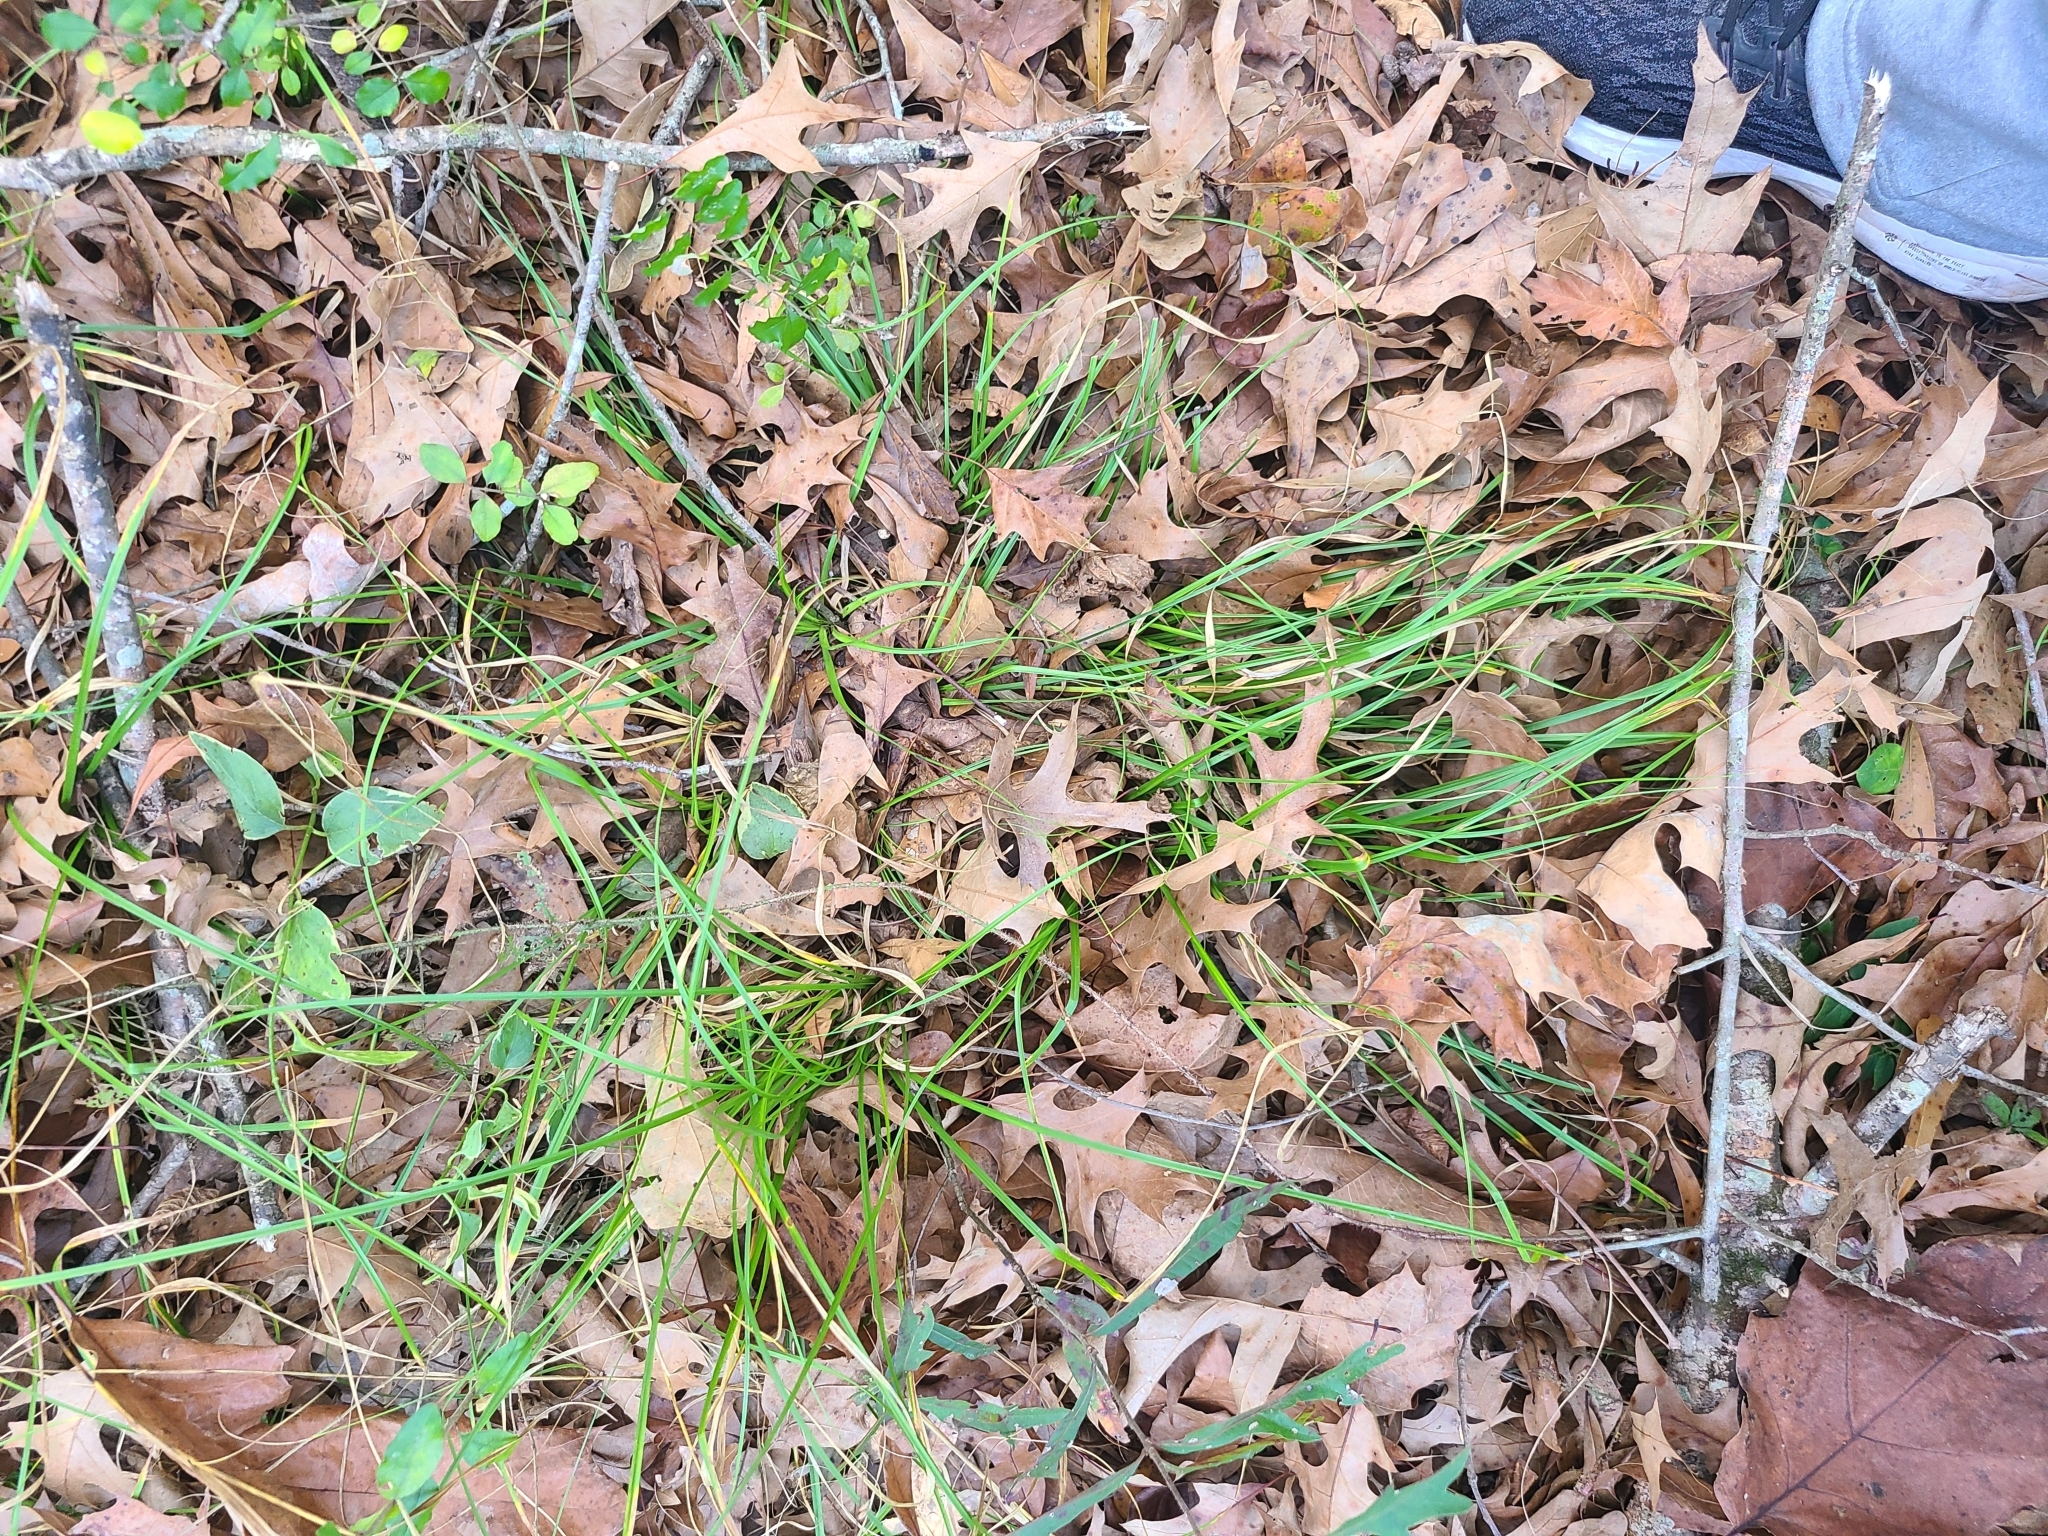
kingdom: Plantae
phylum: Tracheophyta
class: Liliopsida
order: Poales
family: Cyperaceae
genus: Carex
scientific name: Carex cherokeensis
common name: Cherokee sedge
